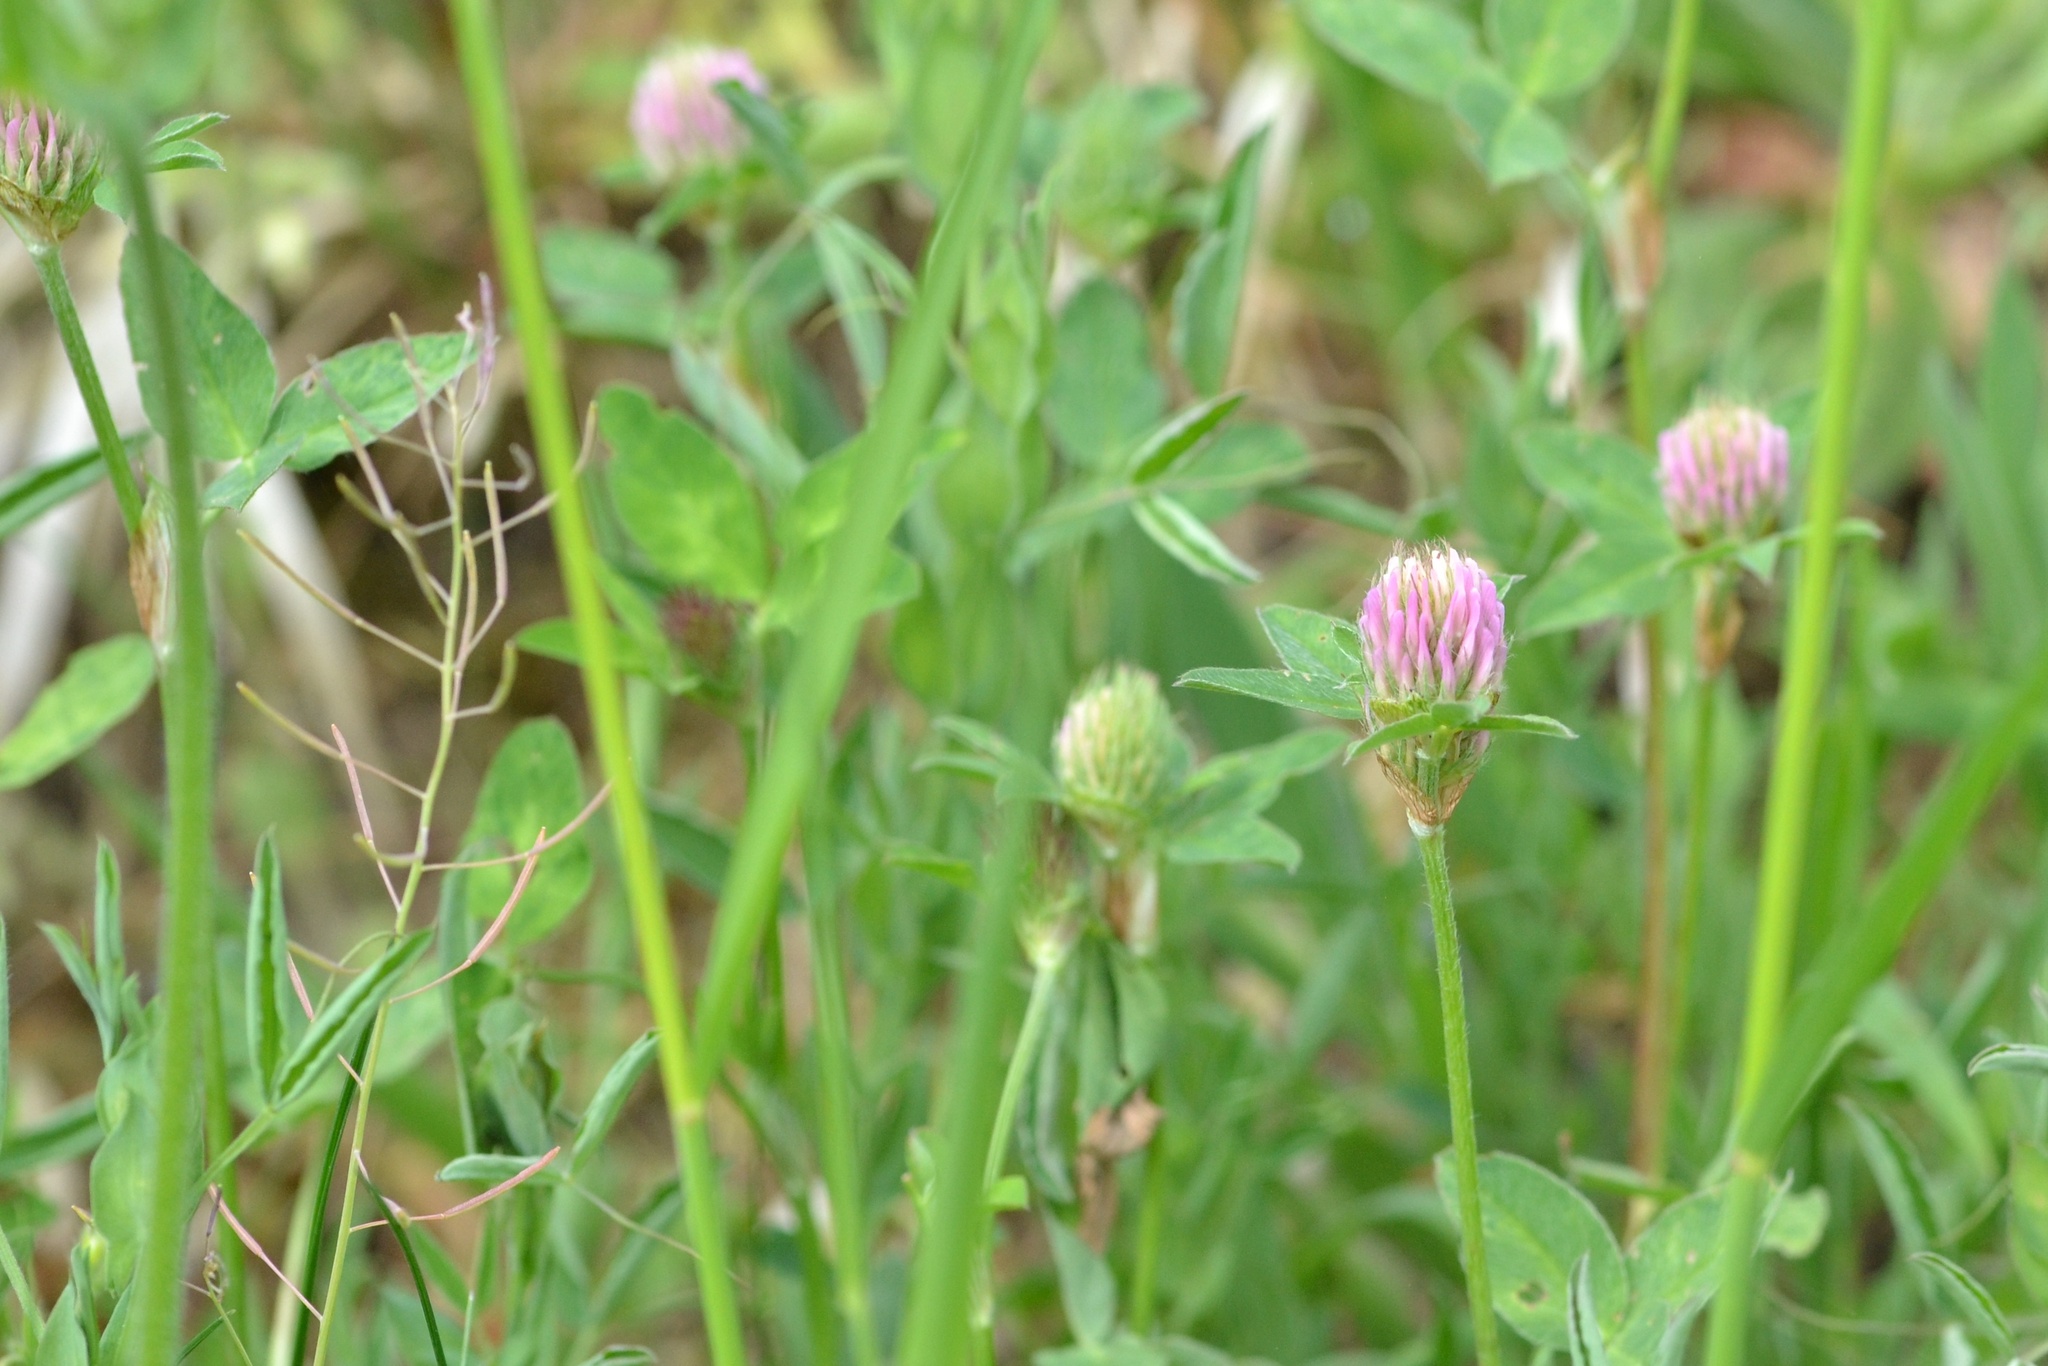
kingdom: Plantae
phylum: Tracheophyta
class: Magnoliopsida
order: Fabales
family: Fabaceae
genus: Trifolium
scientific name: Trifolium pratense
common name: Red clover
